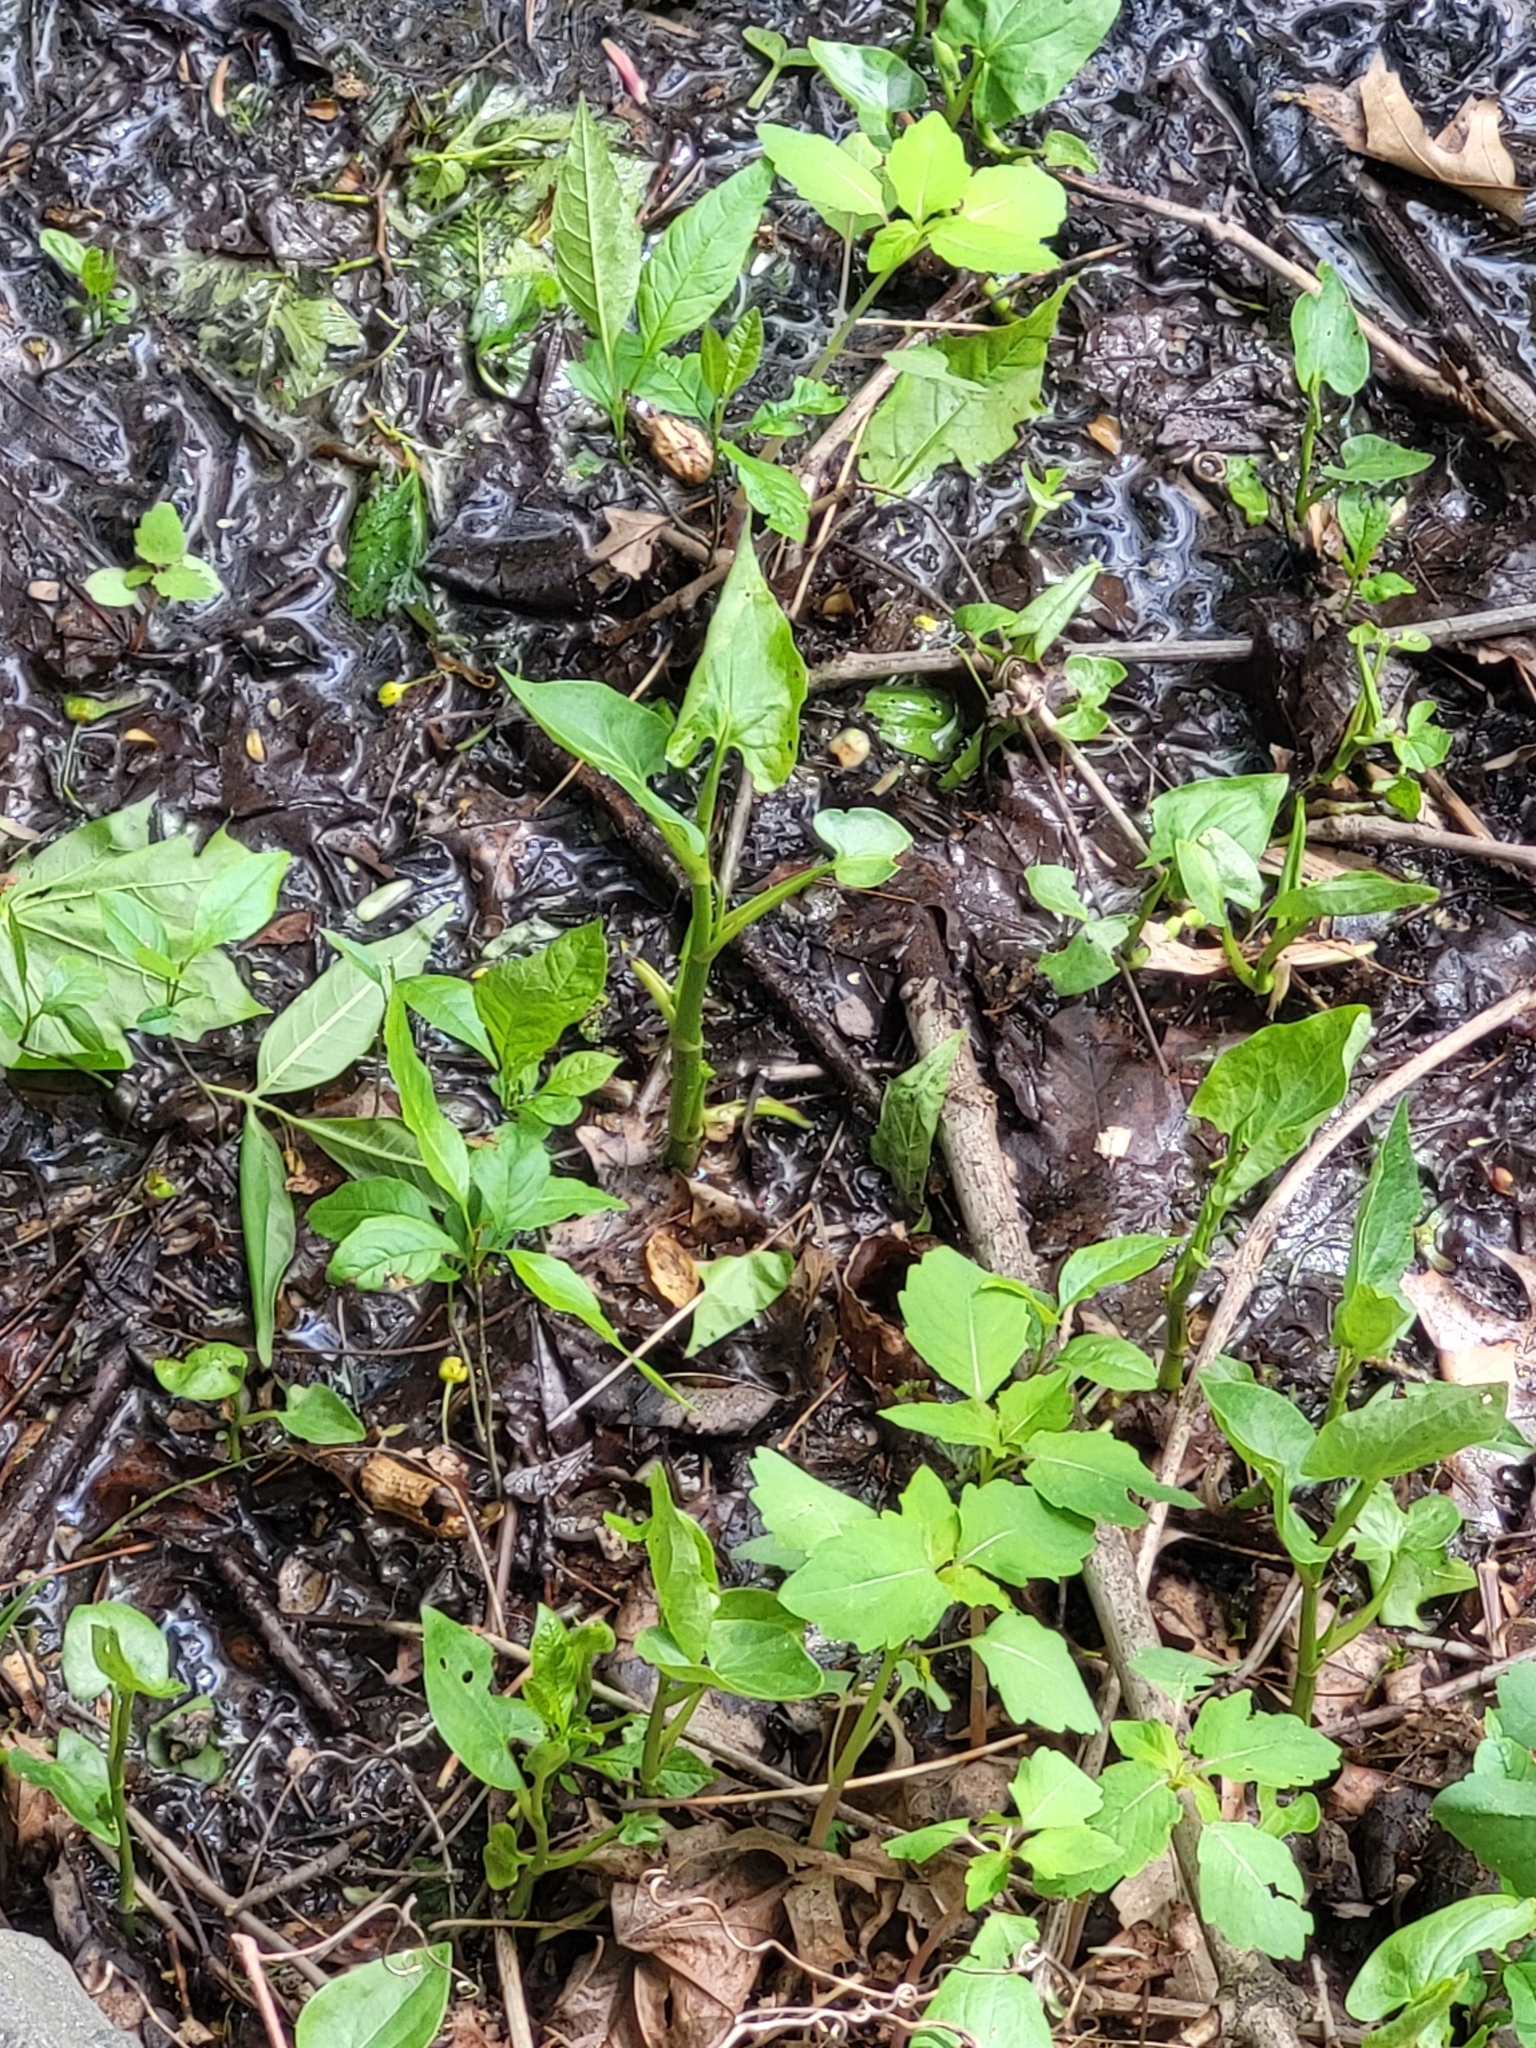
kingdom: Plantae
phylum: Tracheophyta
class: Magnoliopsida
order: Piperales
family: Saururaceae
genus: Saururus
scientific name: Saururus cernuus
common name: Lizard's-tail
